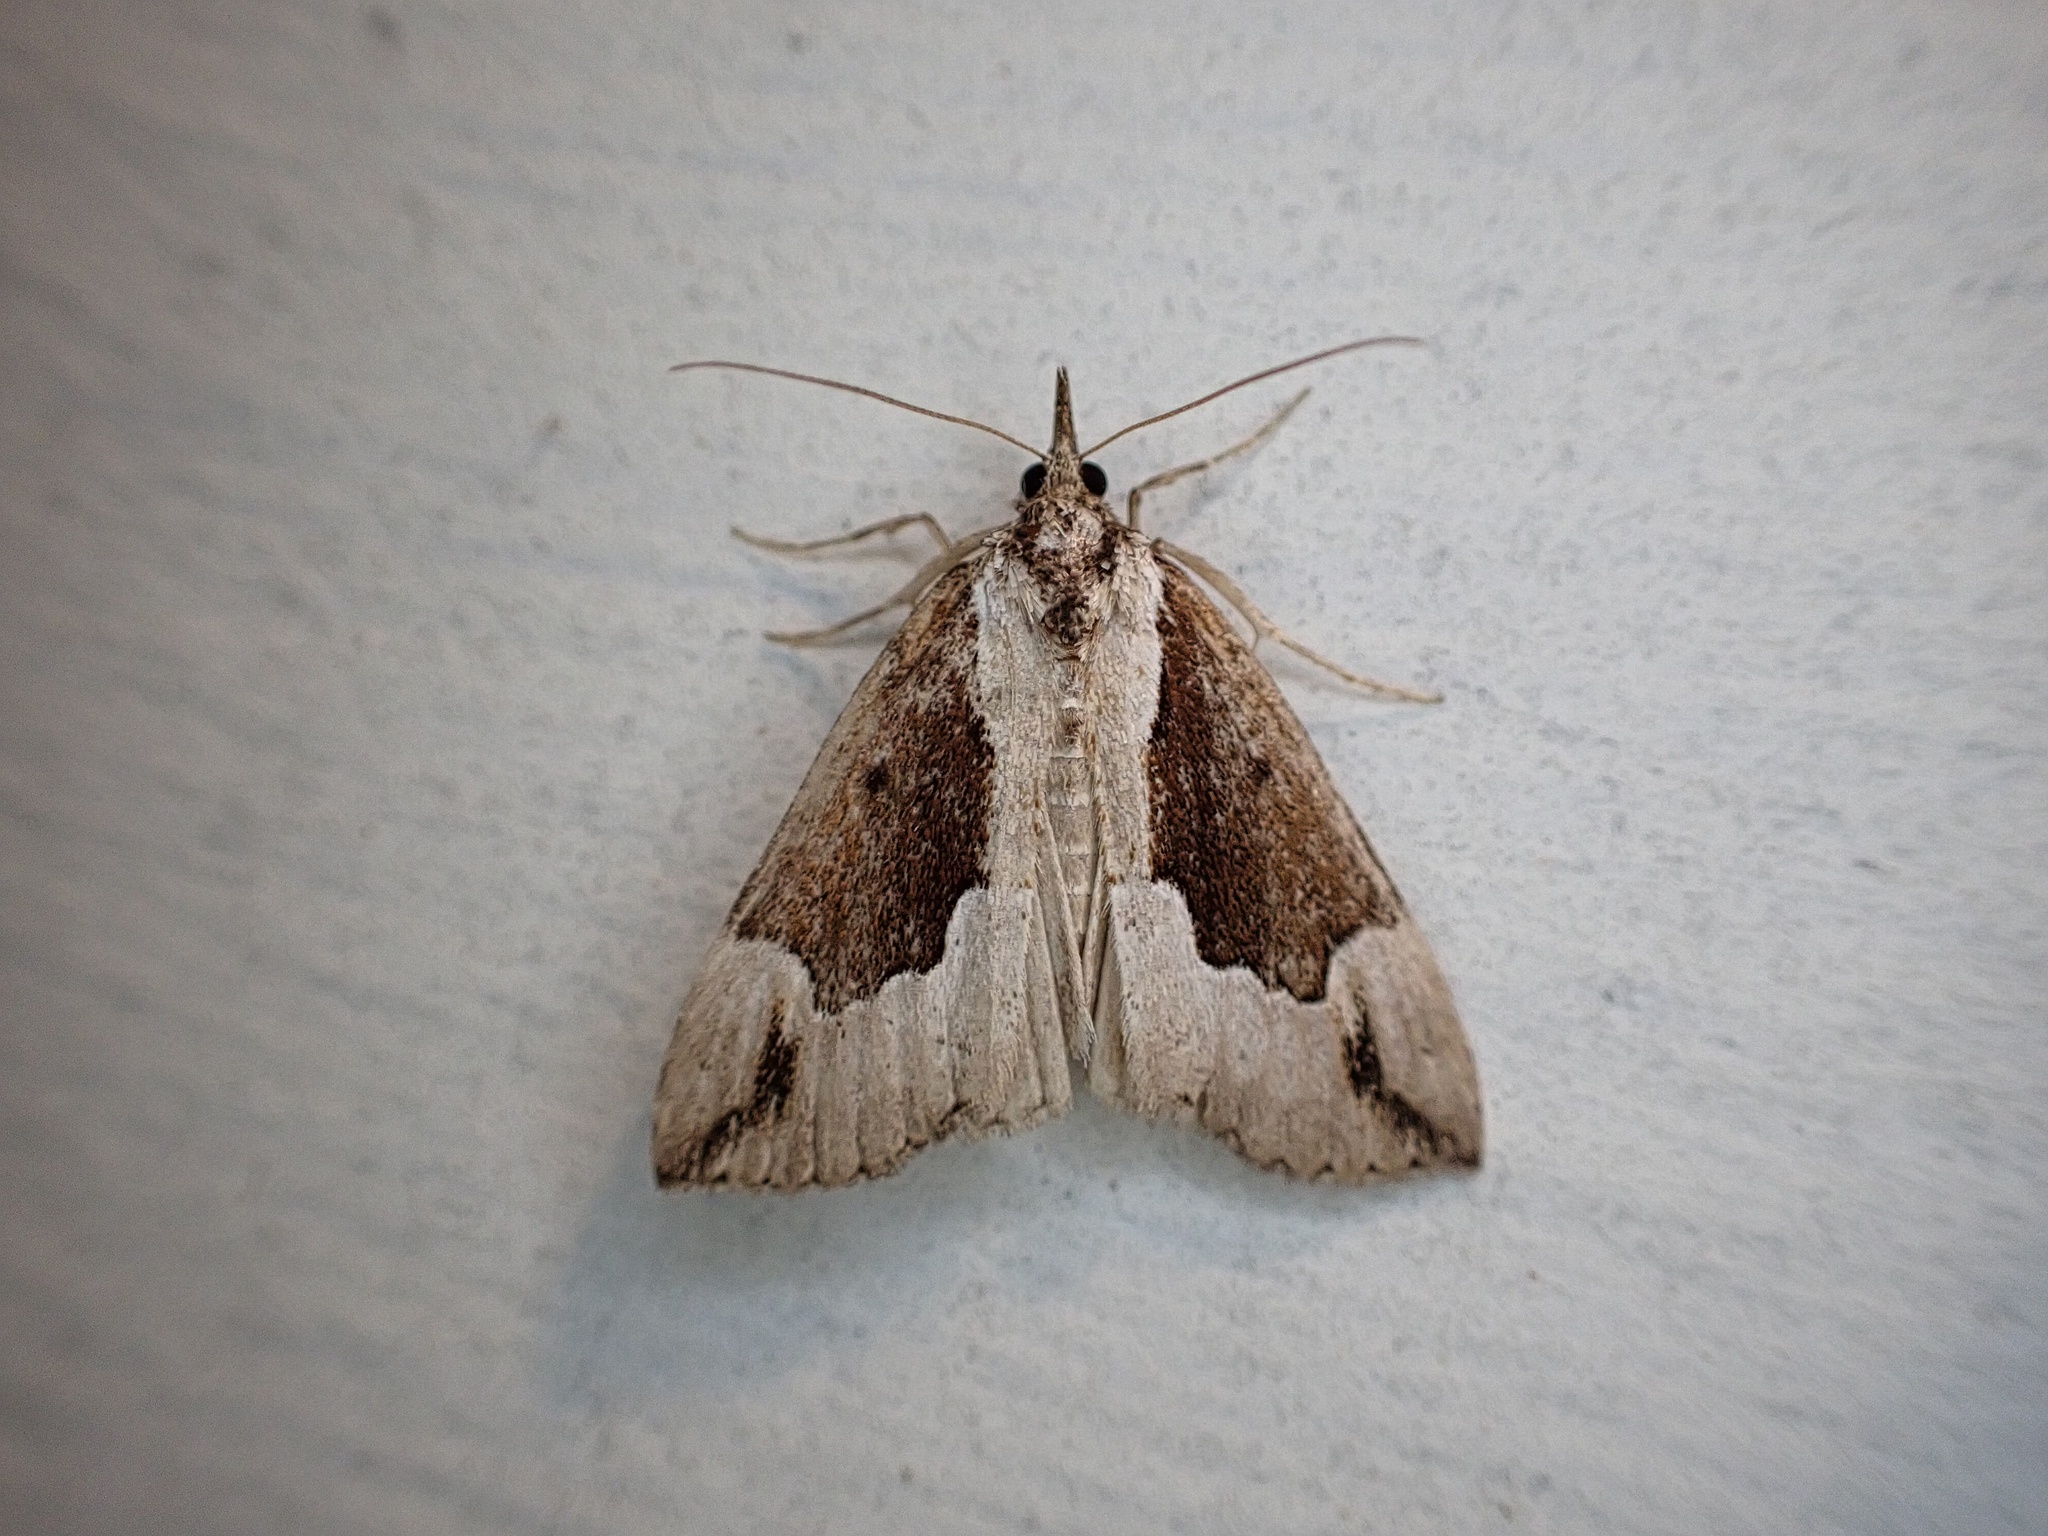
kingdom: Animalia
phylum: Arthropoda
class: Insecta
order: Lepidoptera
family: Erebidae
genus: Hypena
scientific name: Hypena baltimoralis
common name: Baltimore snout
